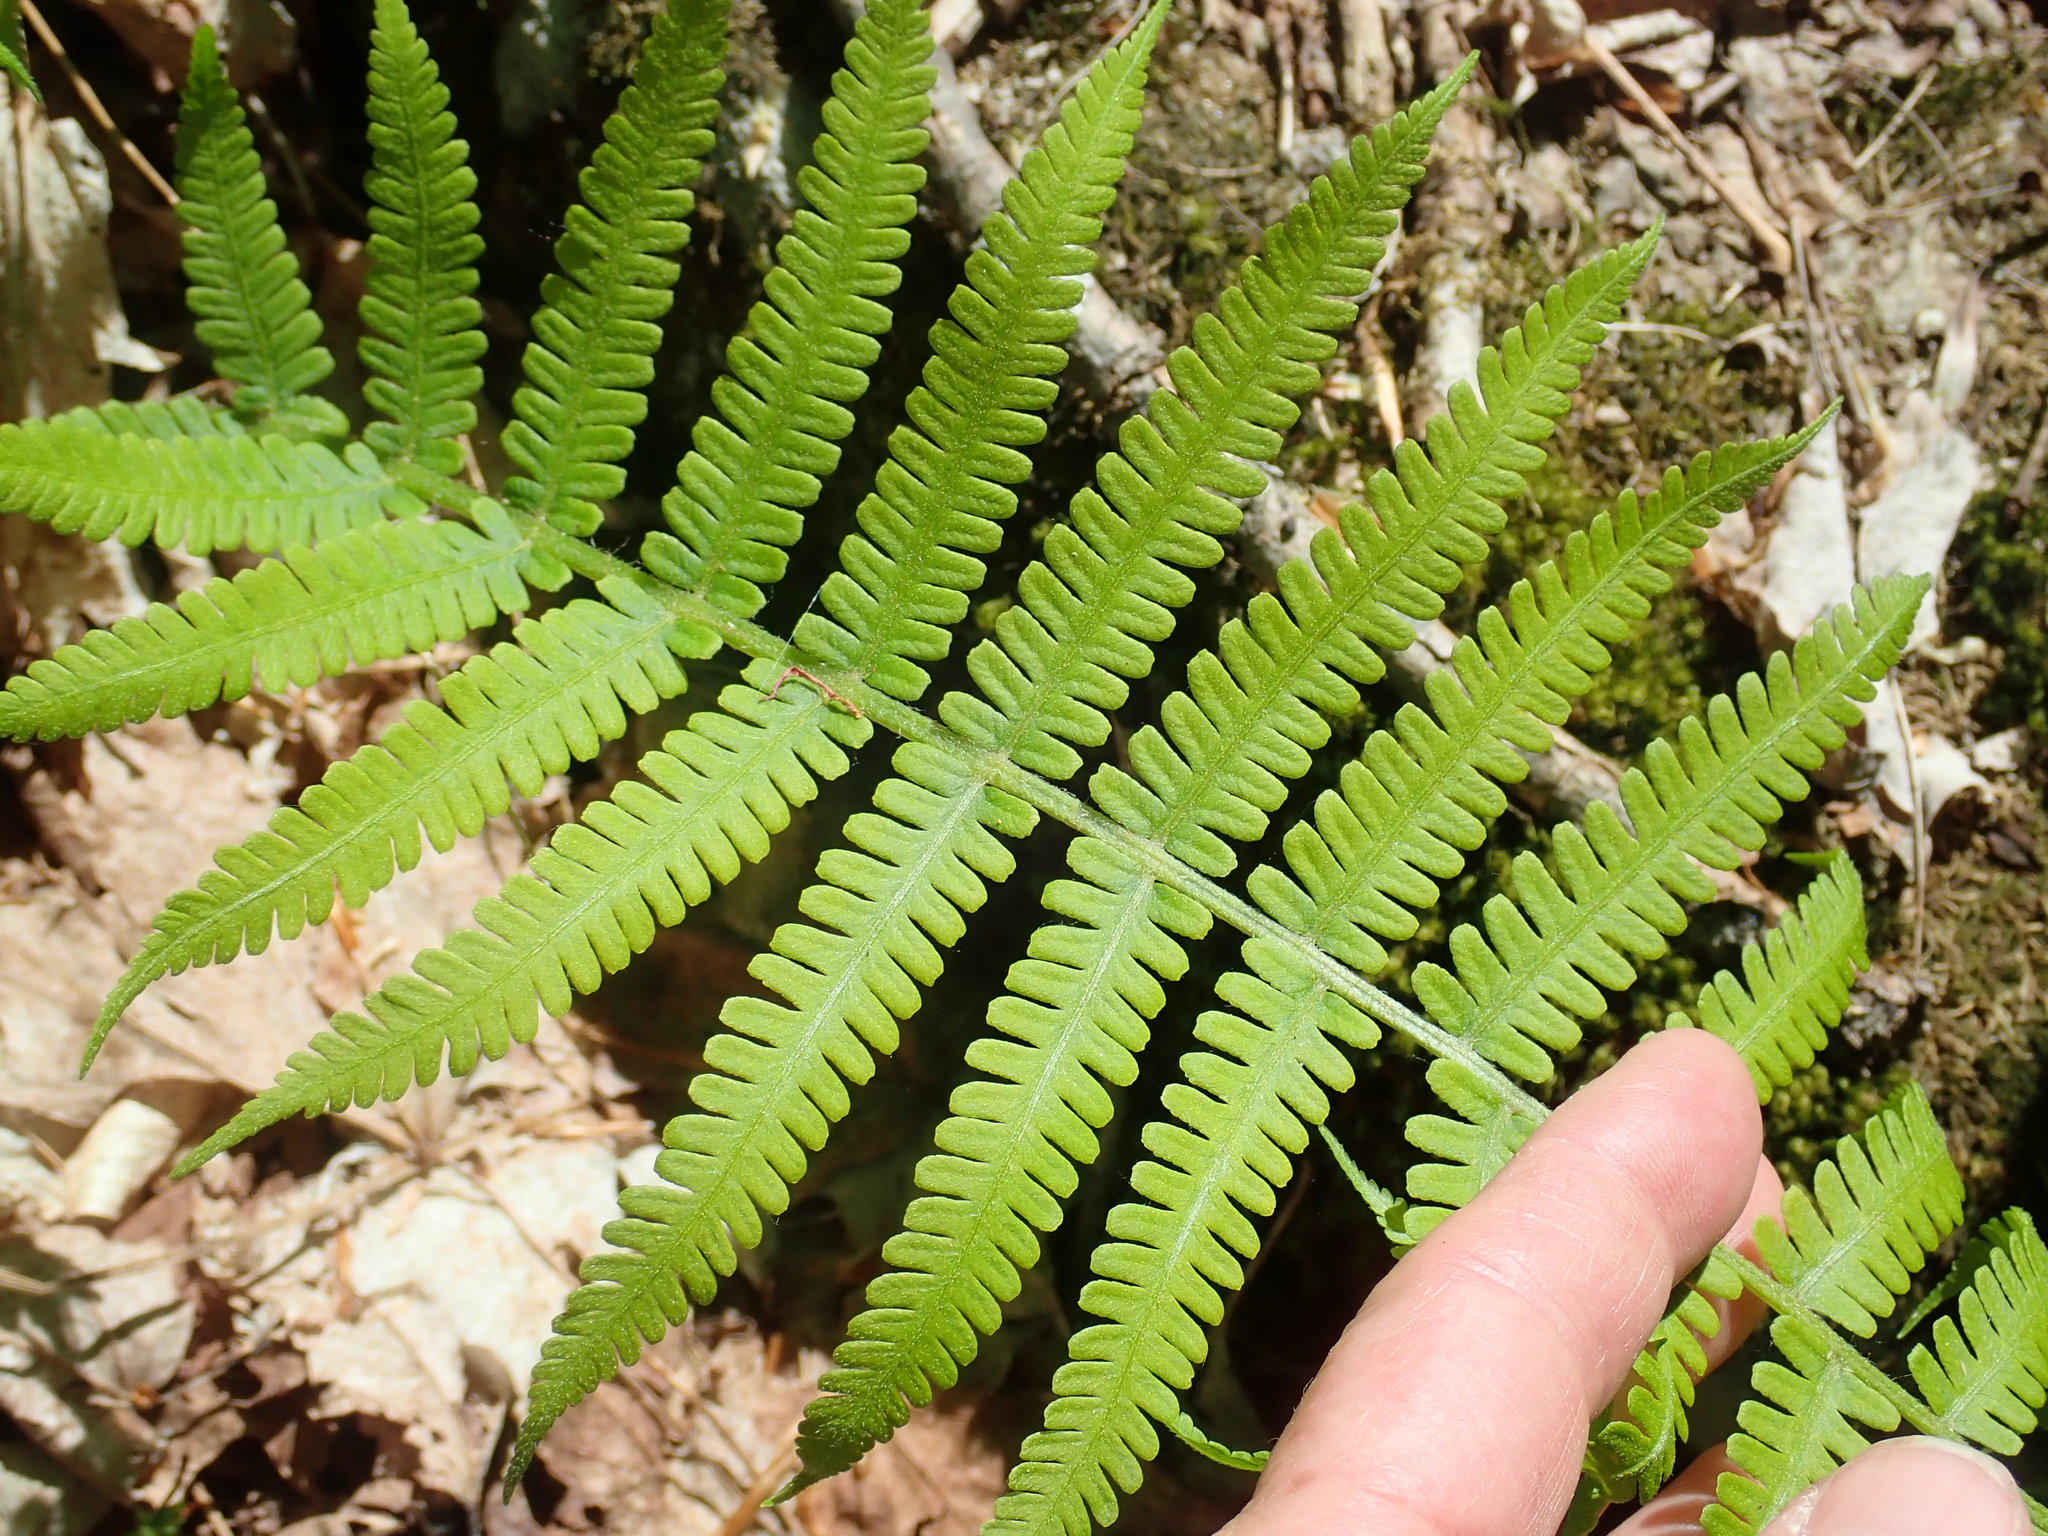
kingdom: Plantae
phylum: Tracheophyta
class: Polypodiopsida
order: Polypodiales
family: Athyriaceae
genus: Deparia
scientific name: Deparia acrostichoides
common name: Silver false spleenwort
